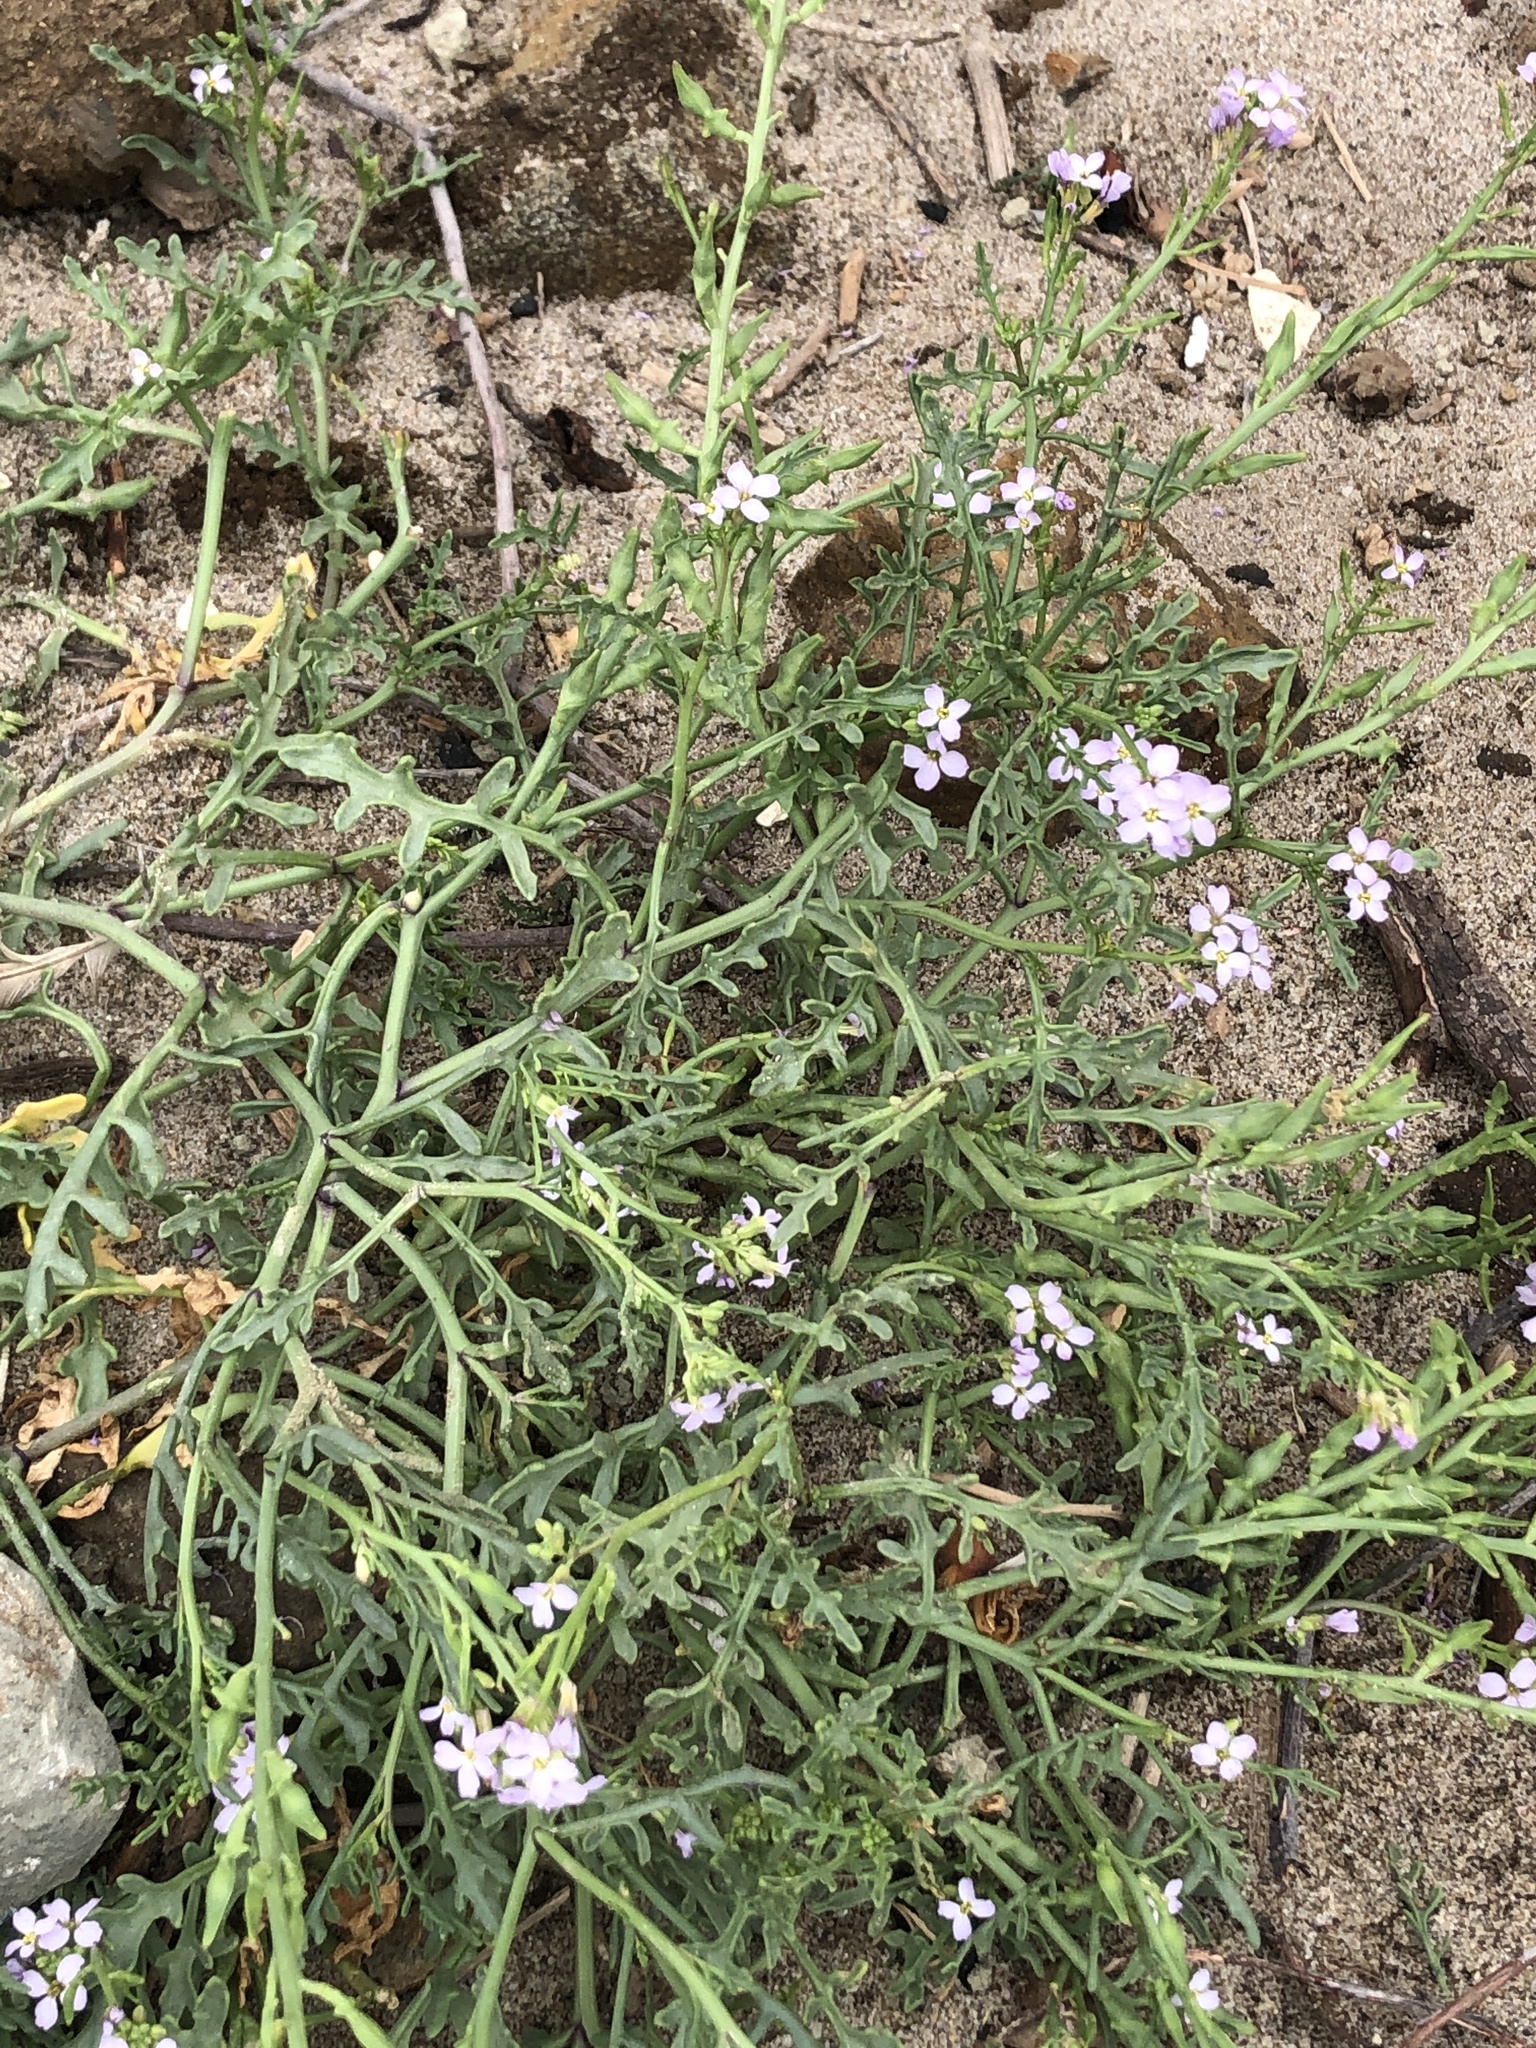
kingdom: Plantae
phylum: Tracheophyta
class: Magnoliopsida
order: Brassicales
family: Brassicaceae
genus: Cakile
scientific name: Cakile maritima
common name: Sea rocket
